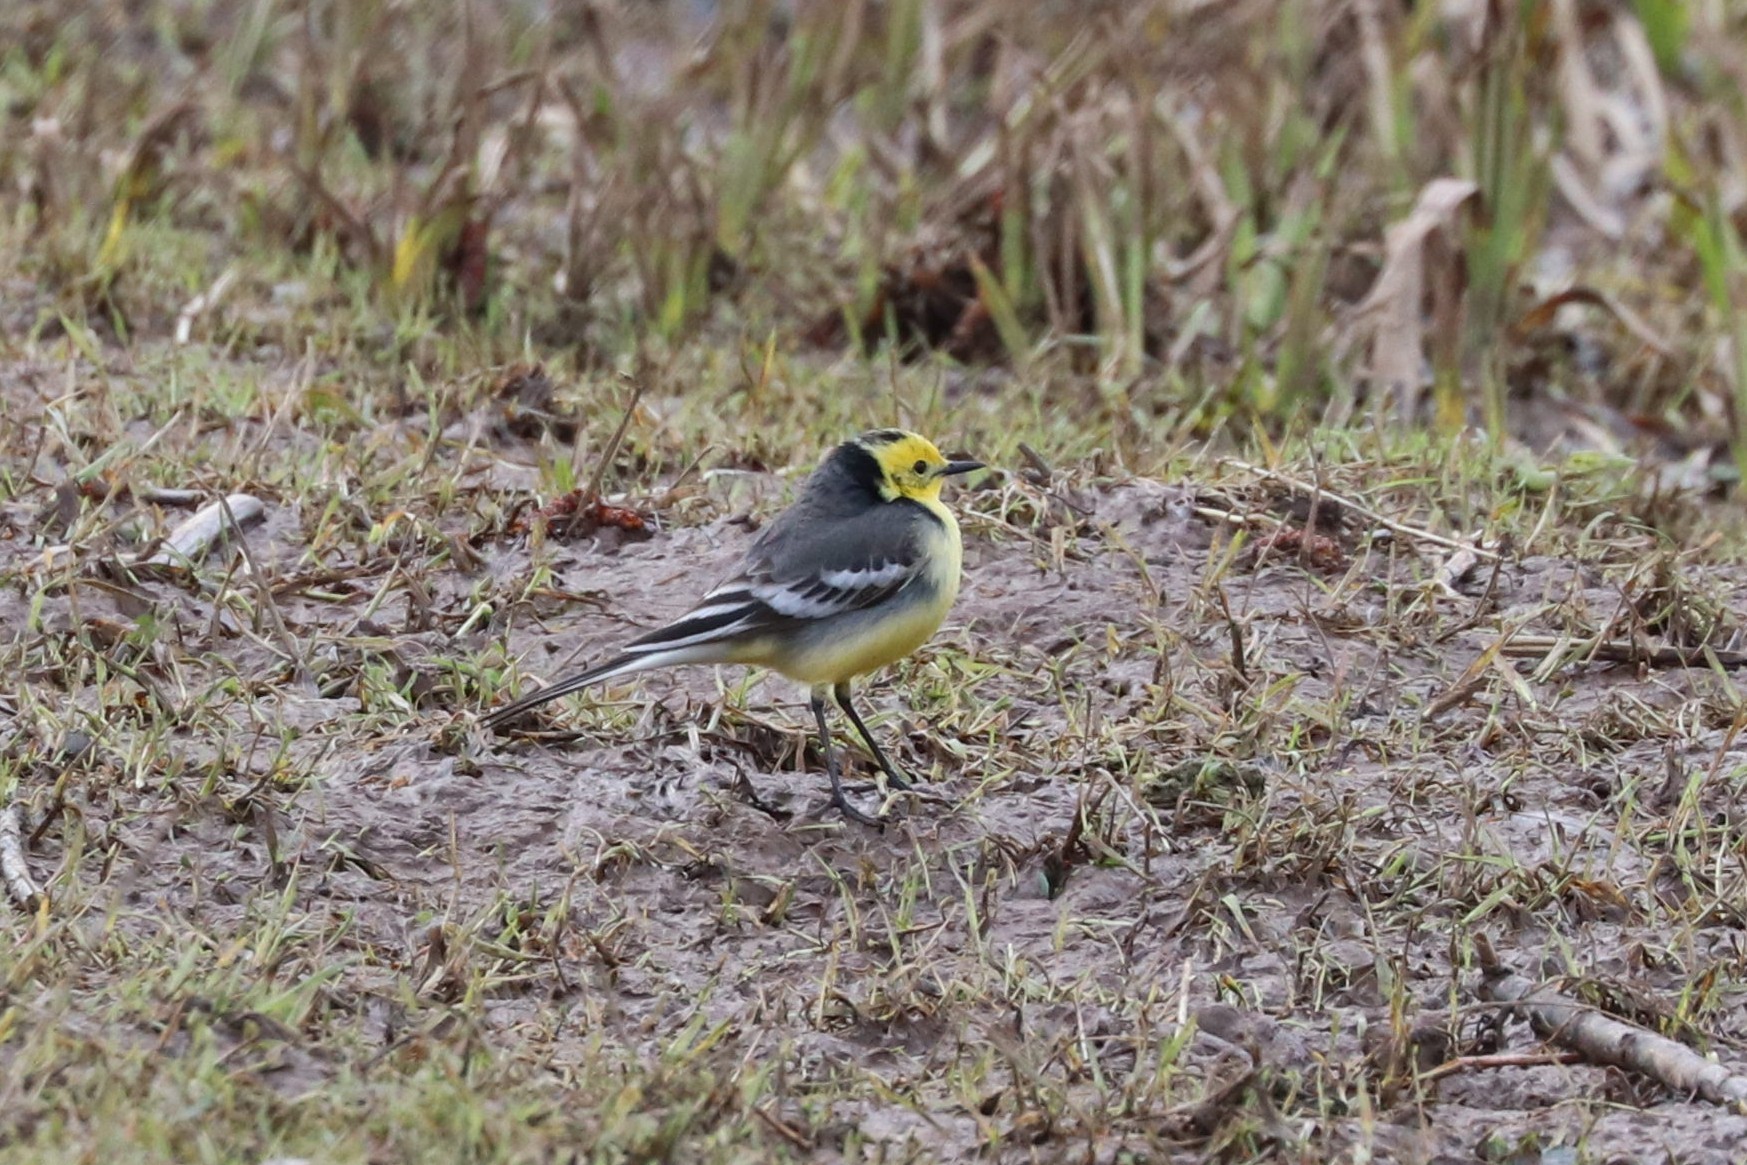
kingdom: Animalia
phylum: Chordata
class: Aves
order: Passeriformes
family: Motacillidae
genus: Motacilla
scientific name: Motacilla citreola
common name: Citrine wagtail
